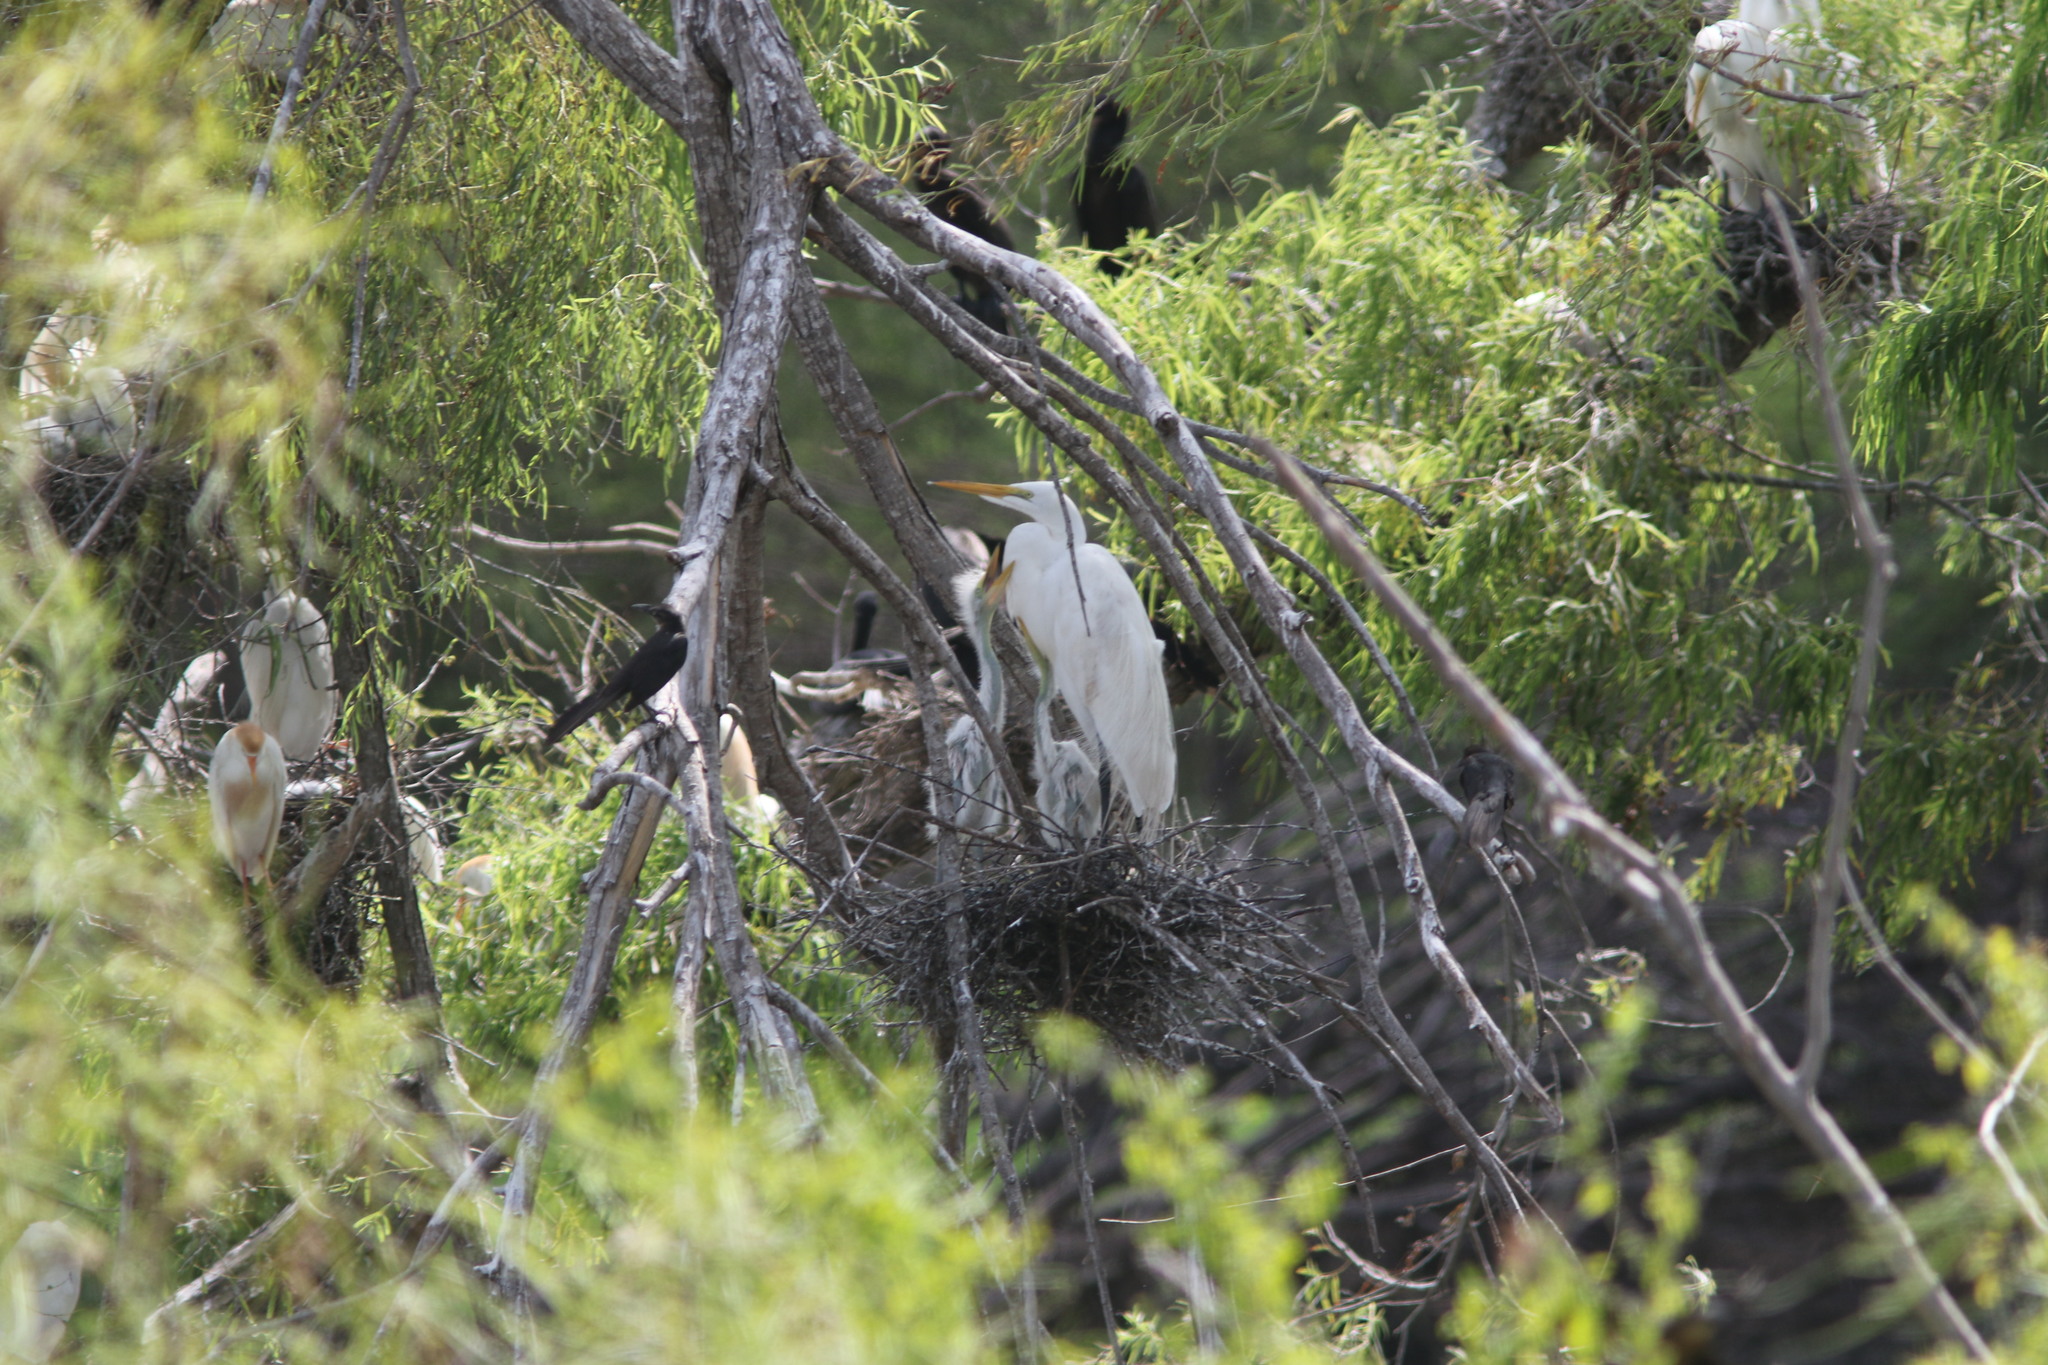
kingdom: Animalia
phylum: Chordata
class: Aves
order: Pelecaniformes
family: Ardeidae
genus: Ardea
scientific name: Ardea alba
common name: Great egret
